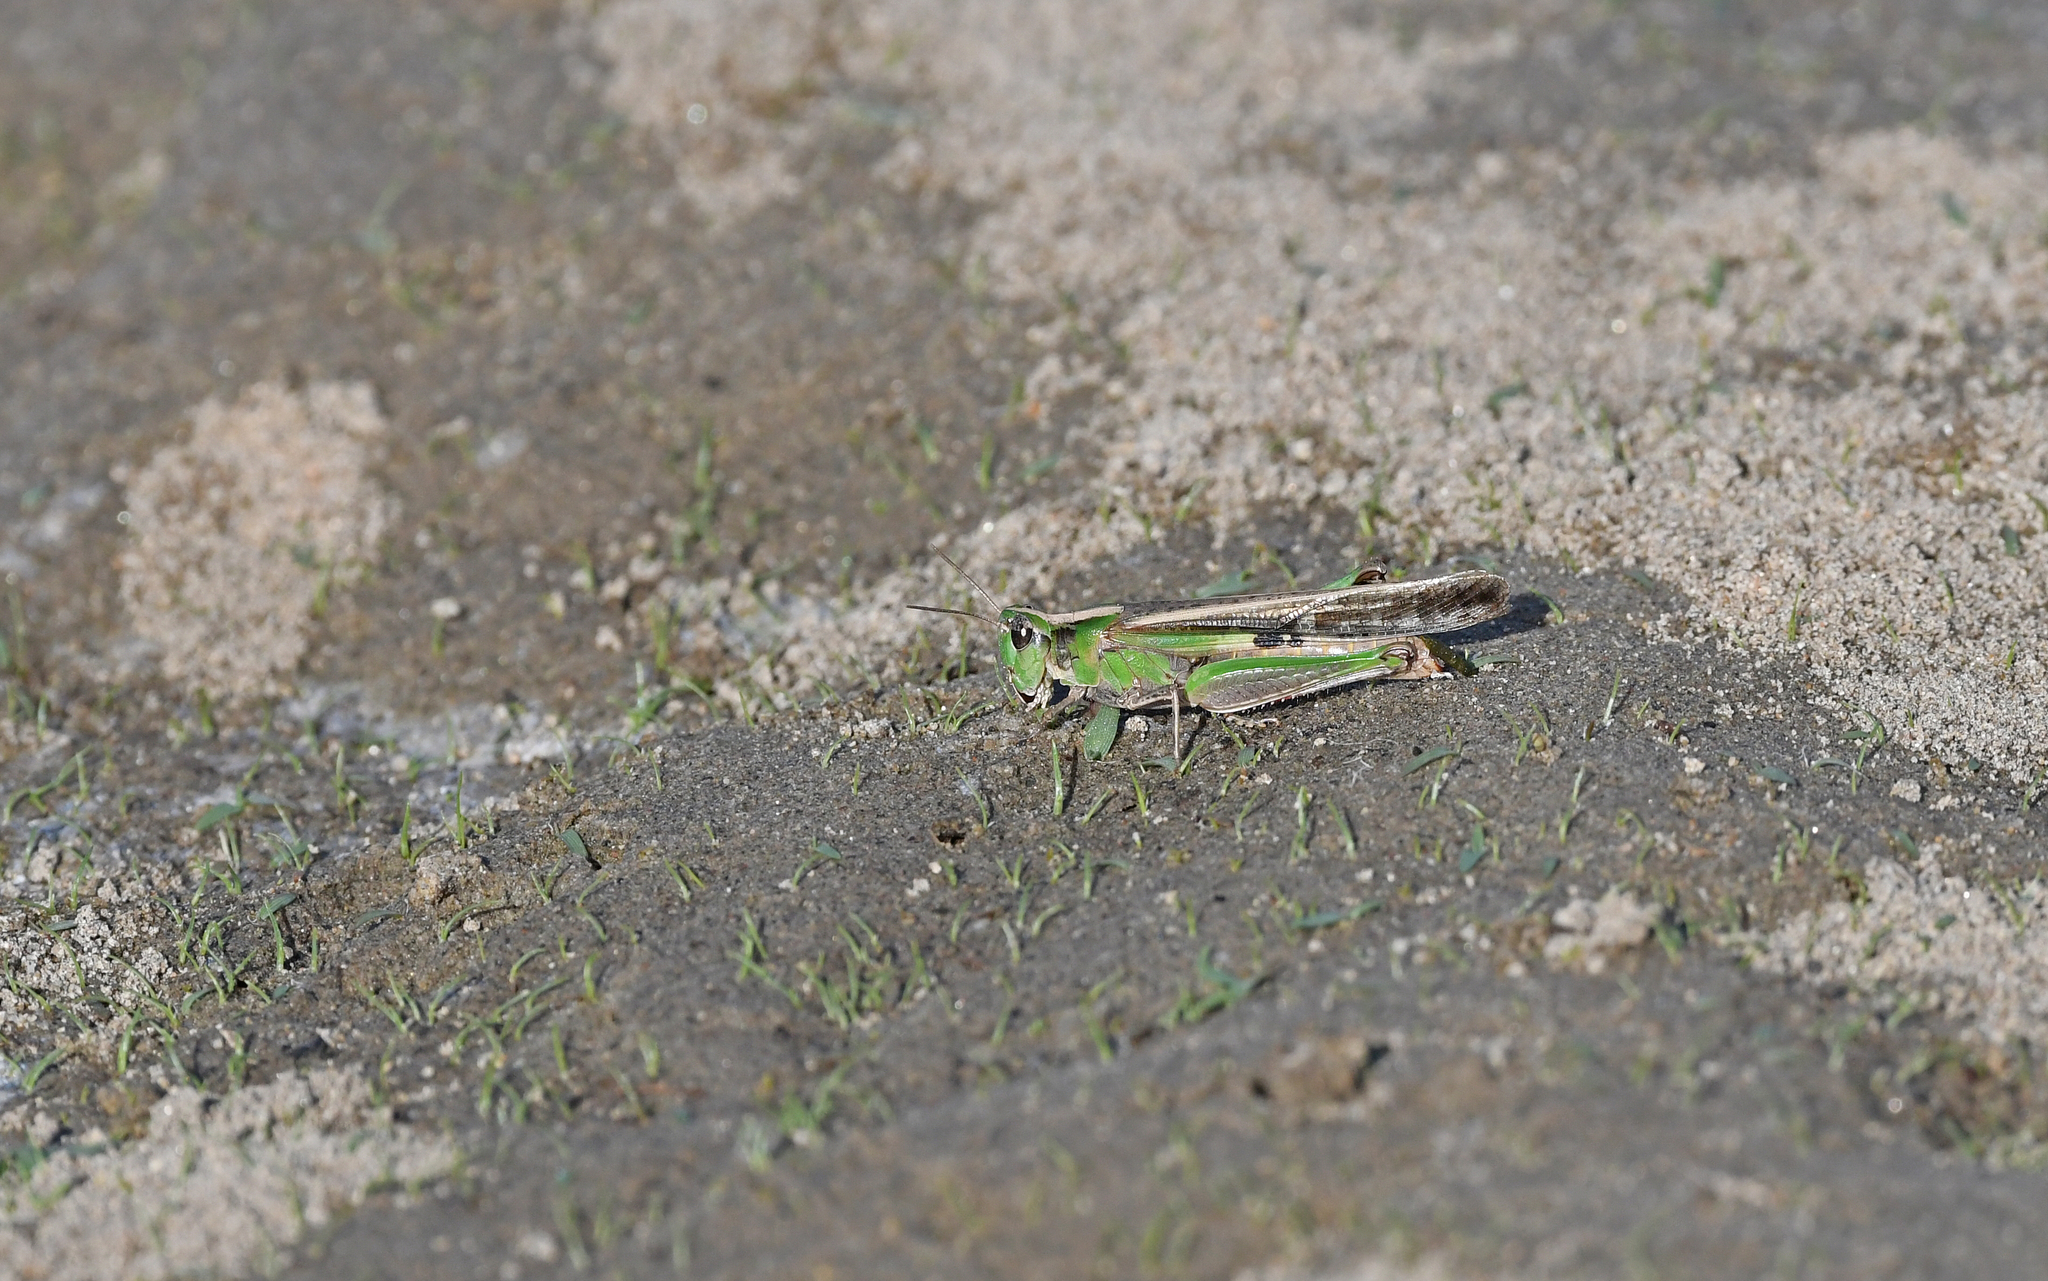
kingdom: Animalia
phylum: Arthropoda
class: Insecta
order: Orthoptera
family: Acrididae
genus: Aiolopus
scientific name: Aiolopus puissanti
